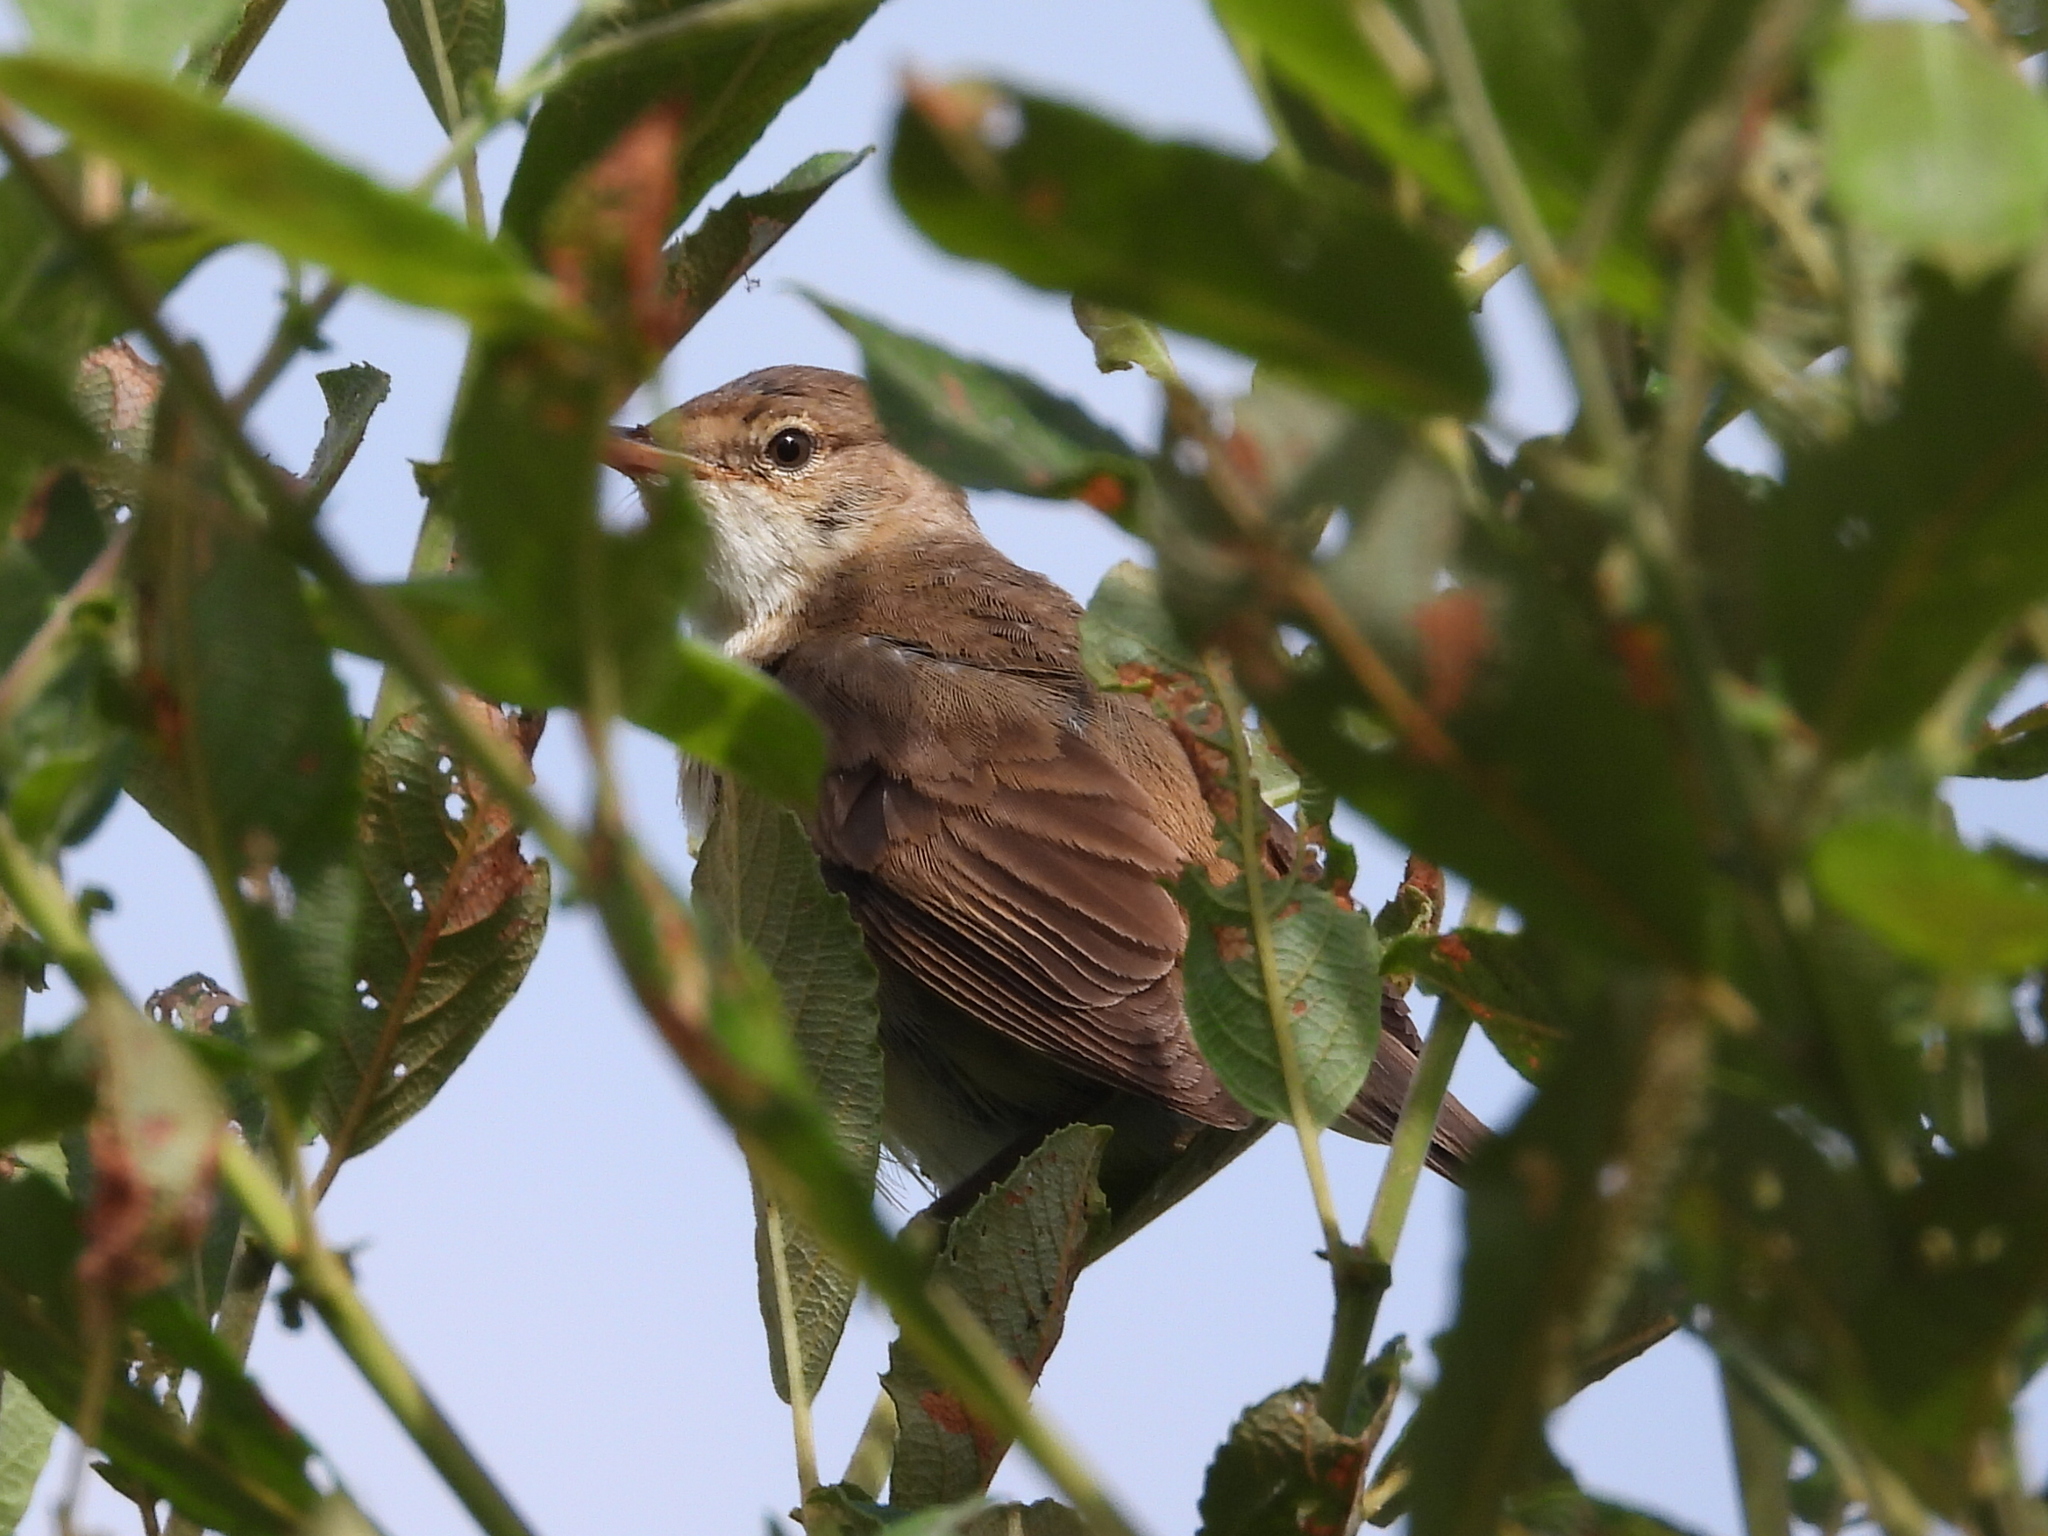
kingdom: Animalia
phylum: Chordata
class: Aves
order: Passeriformes
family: Acrocephalidae
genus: Acrocephalus
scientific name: Acrocephalus scirpaceus
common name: Eurasian reed warbler
